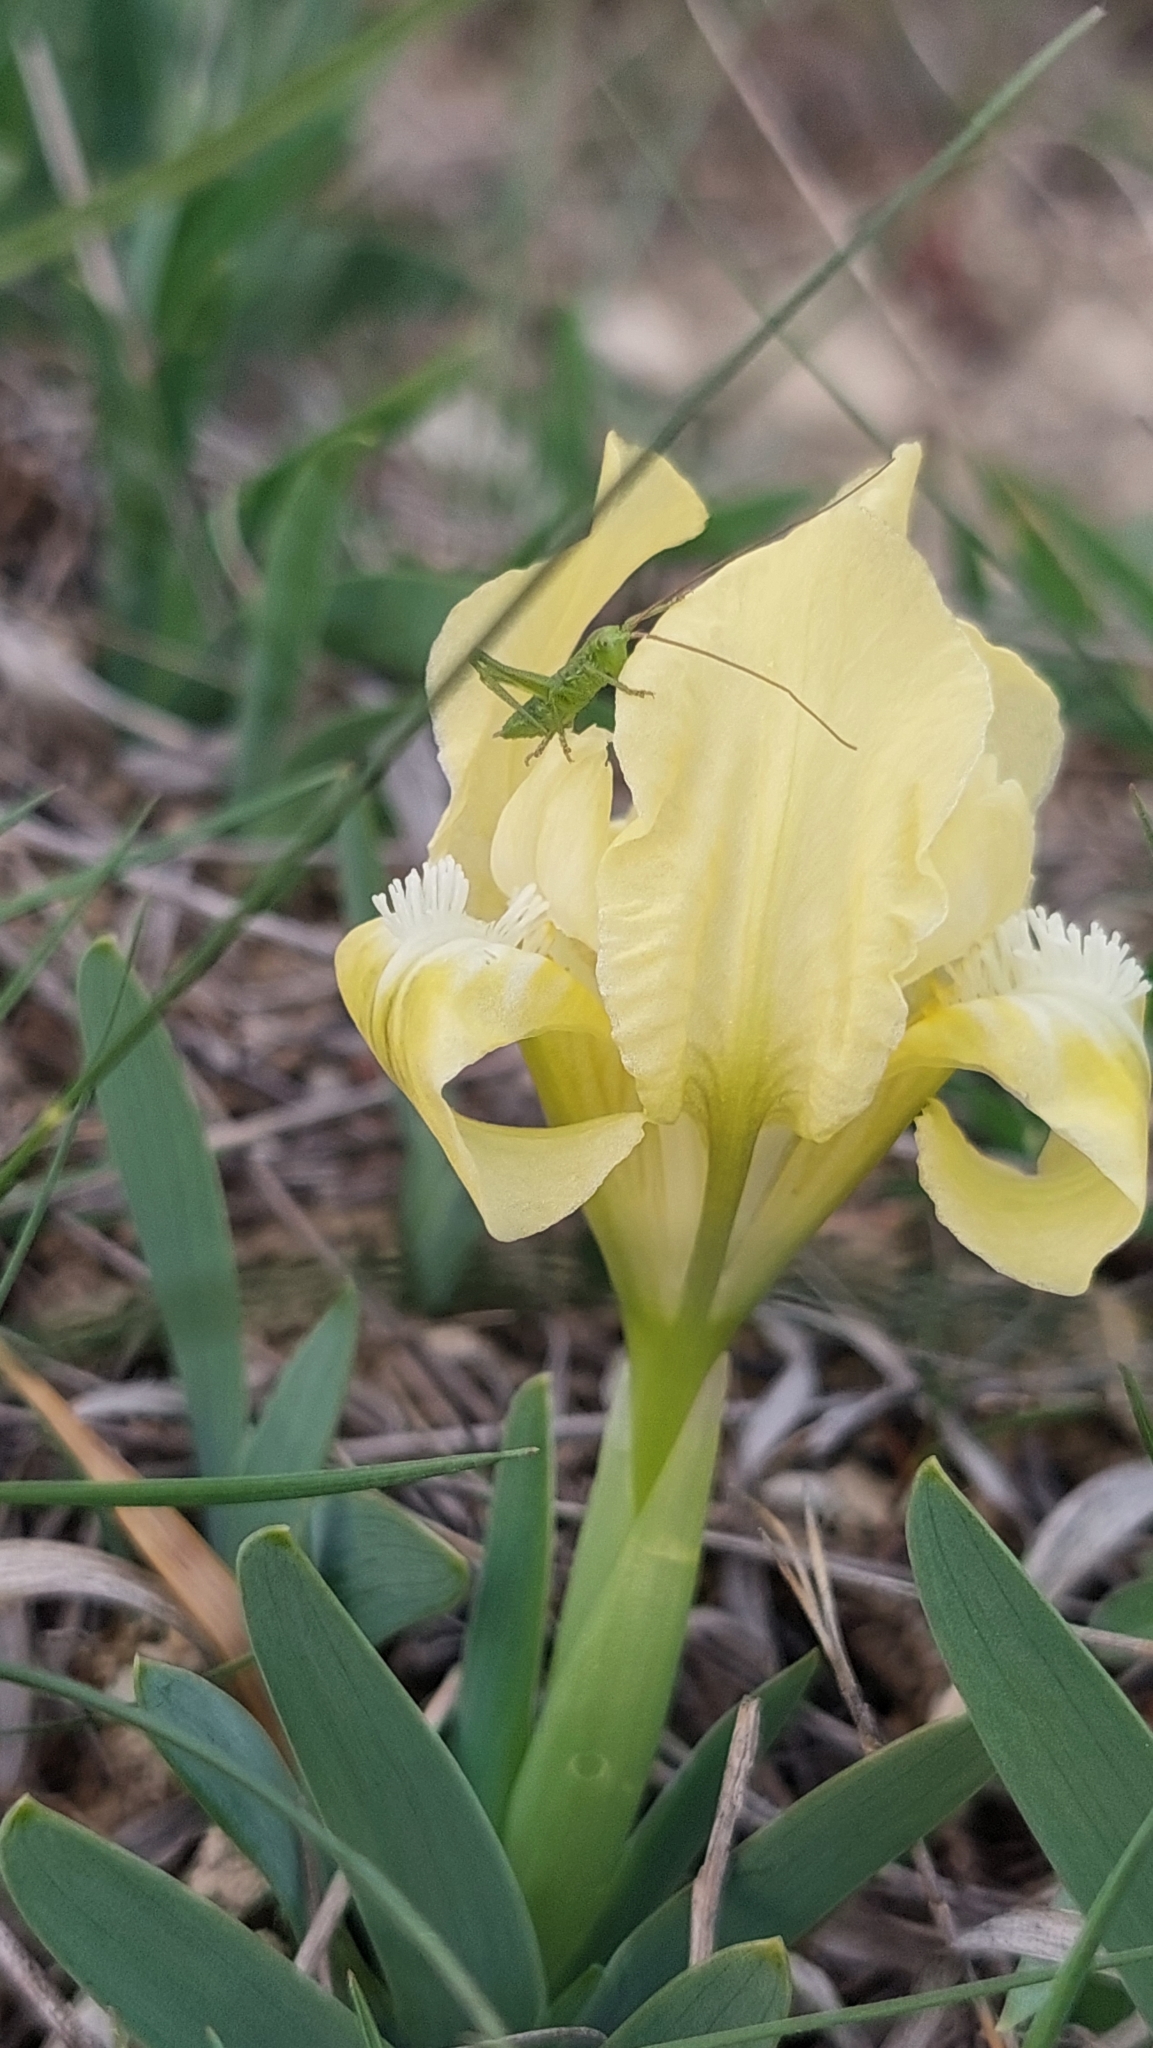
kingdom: Plantae
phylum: Tracheophyta
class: Liliopsida
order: Asparagales
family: Iridaceae
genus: Iris
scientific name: Iris pumila
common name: Dwarf iris
